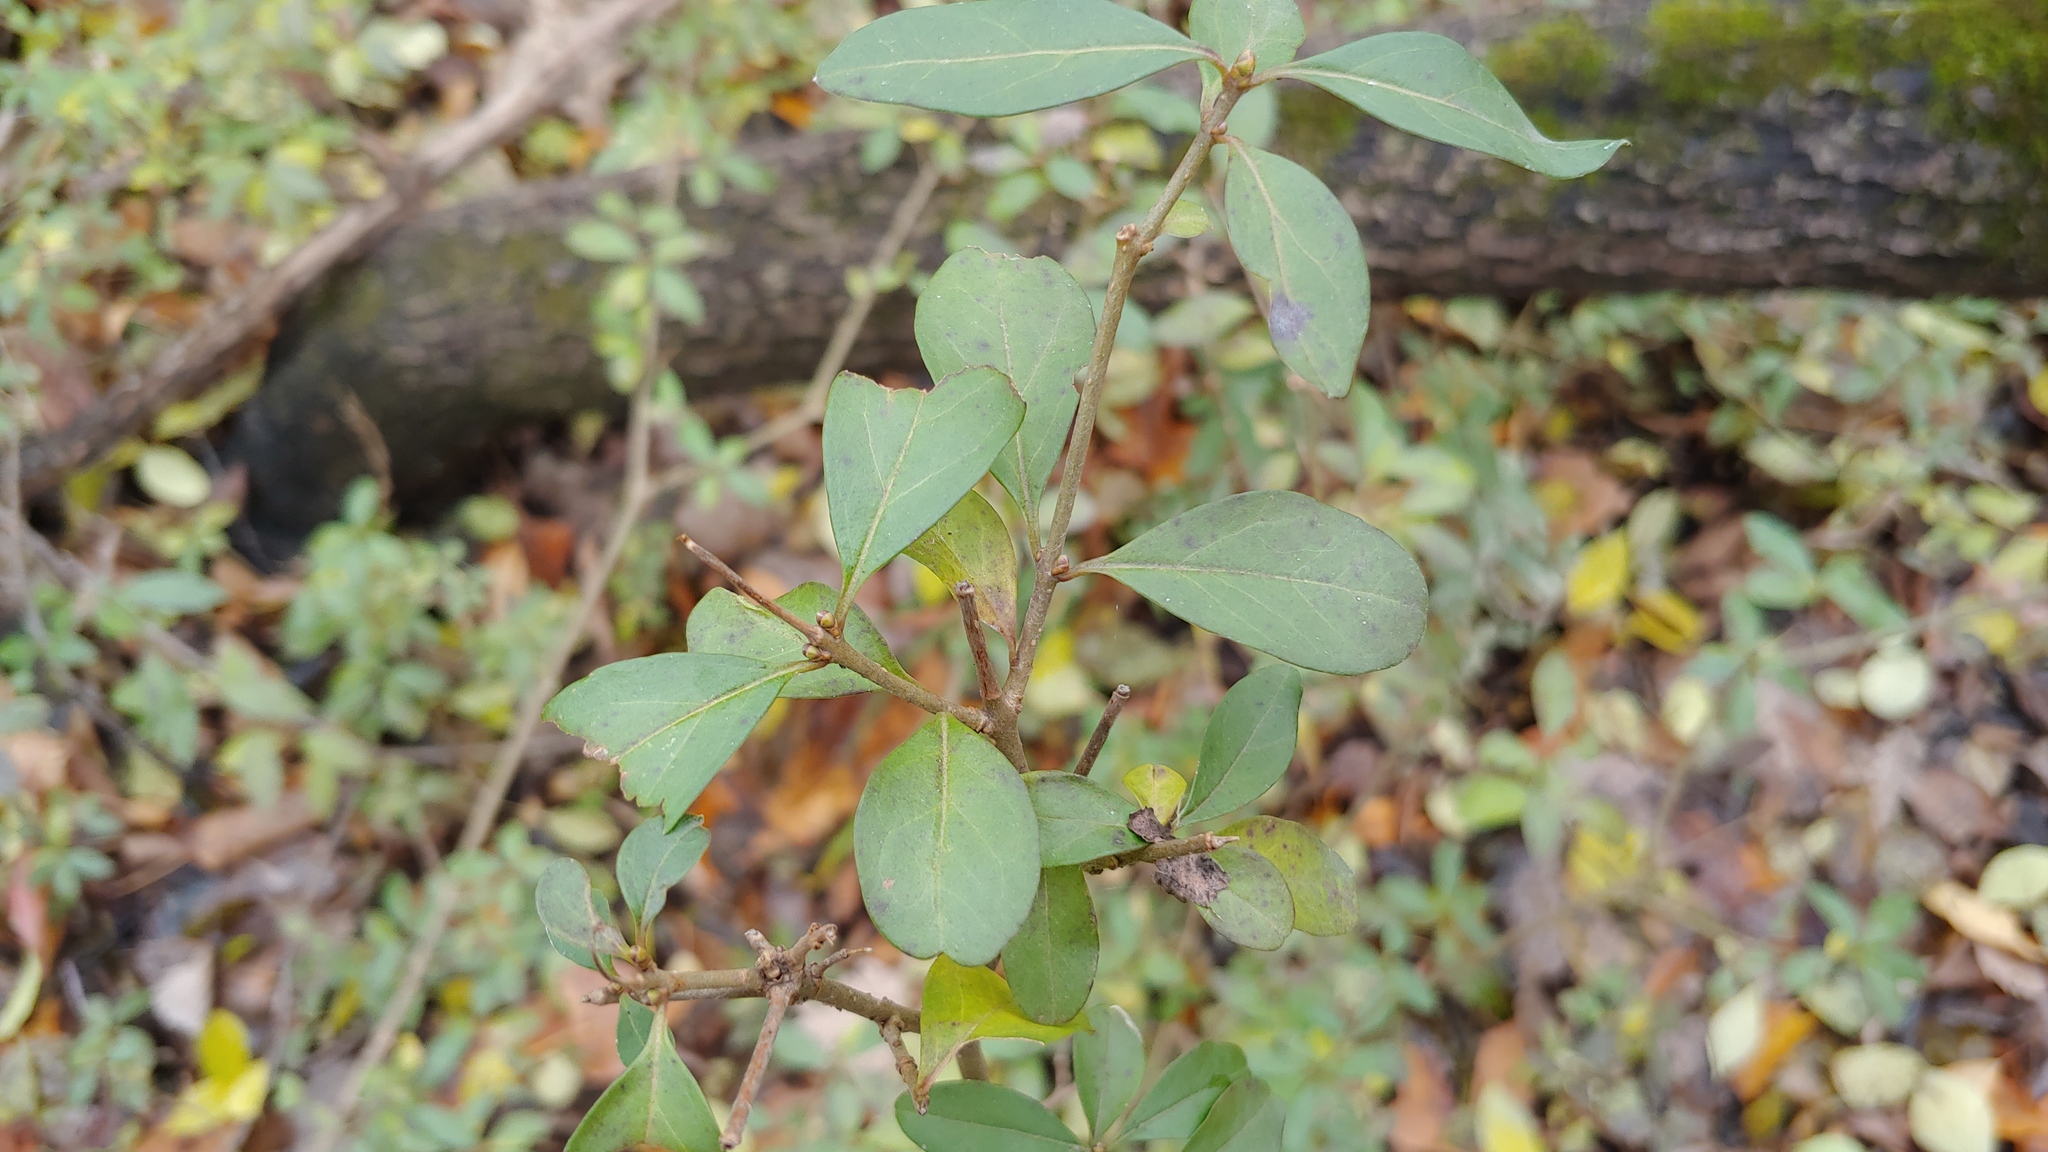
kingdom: Plantae
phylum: Tracheophyta
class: Magnoliopsida
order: Lamiales
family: Oleaceae
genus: Ligustrum
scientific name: Ligustrum ovalifolium
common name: California privet
